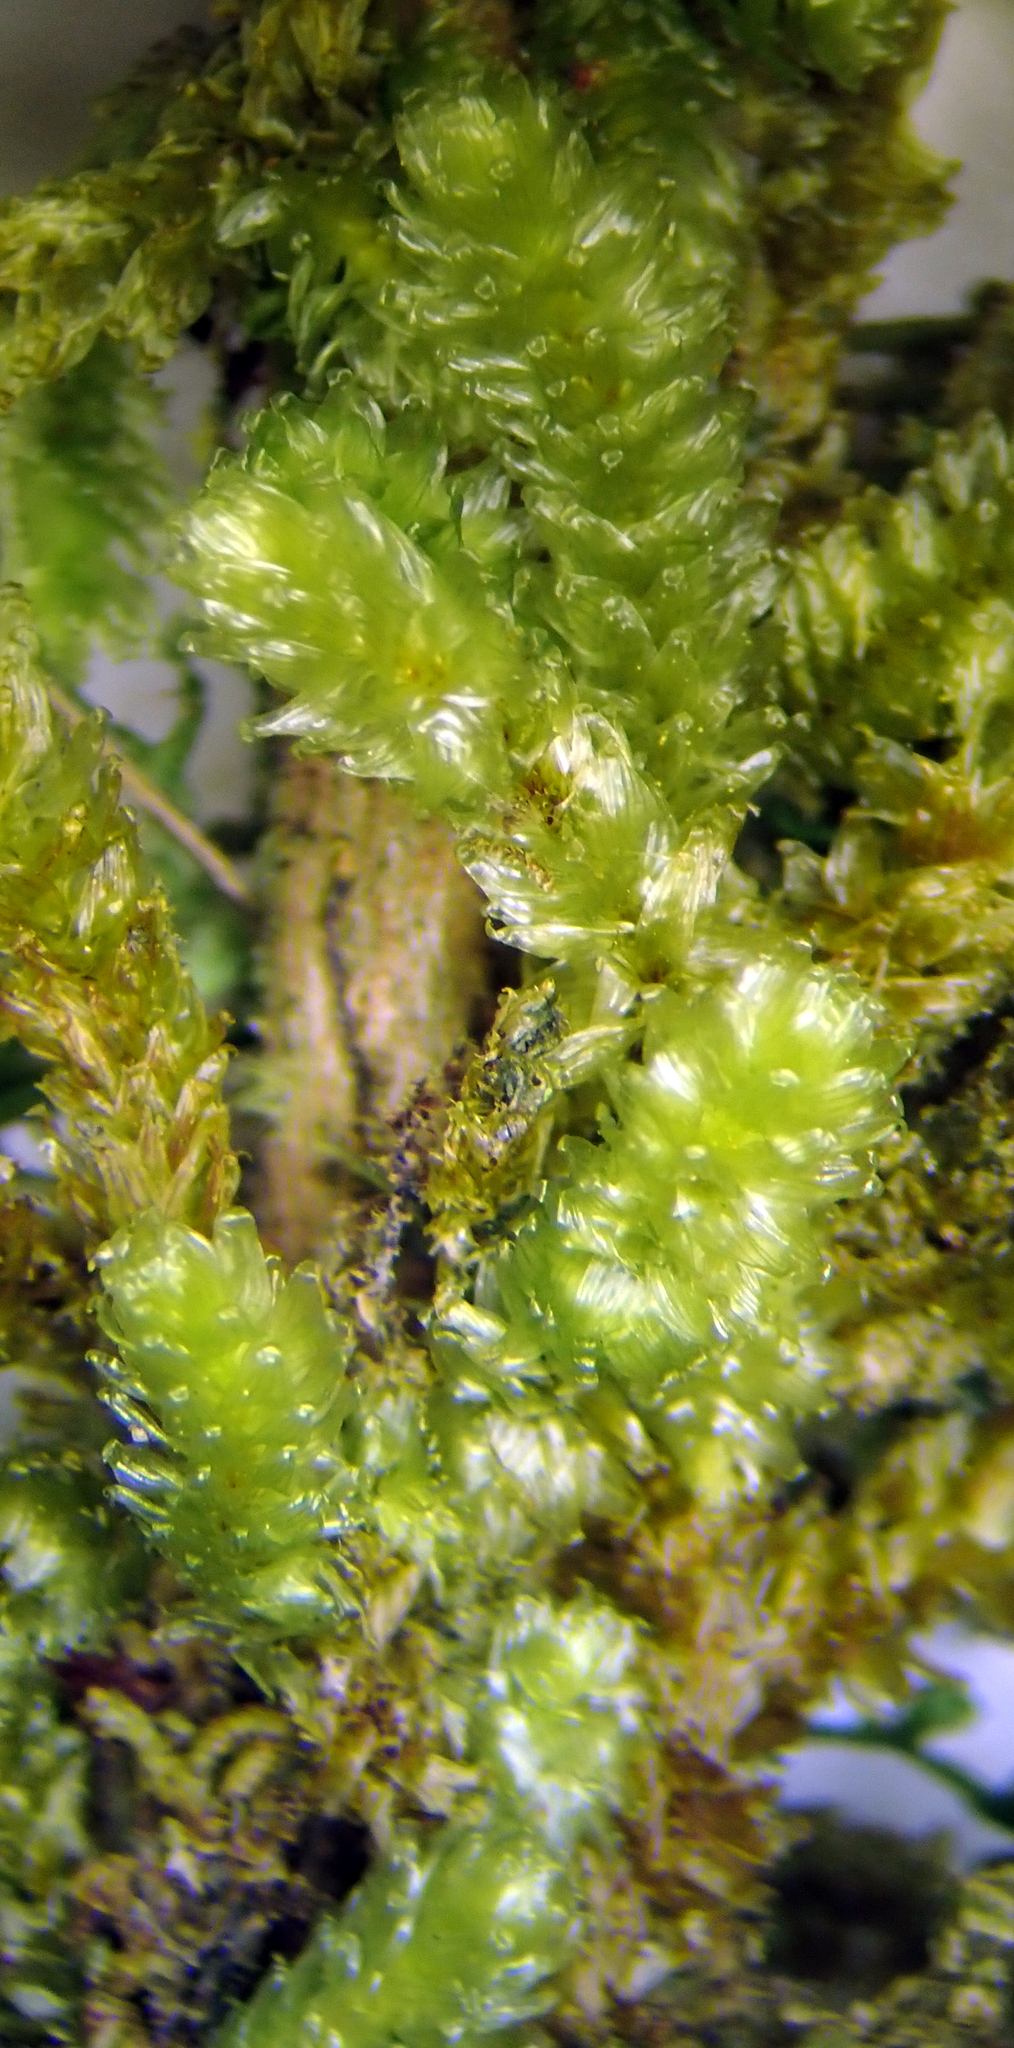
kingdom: Plantae
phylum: Bryophyta
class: Bryopsida
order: Ptychomniales
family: Ptychomniaceae
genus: Cladomnion
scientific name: Cladomnion ericoides
